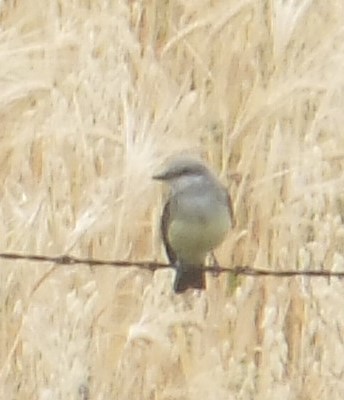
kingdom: Animalia
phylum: Chordata
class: Aves
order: Passeriformes
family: Tyrannidae
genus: Tyrannus
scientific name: Tyrannus verticalis
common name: Western kingbird
